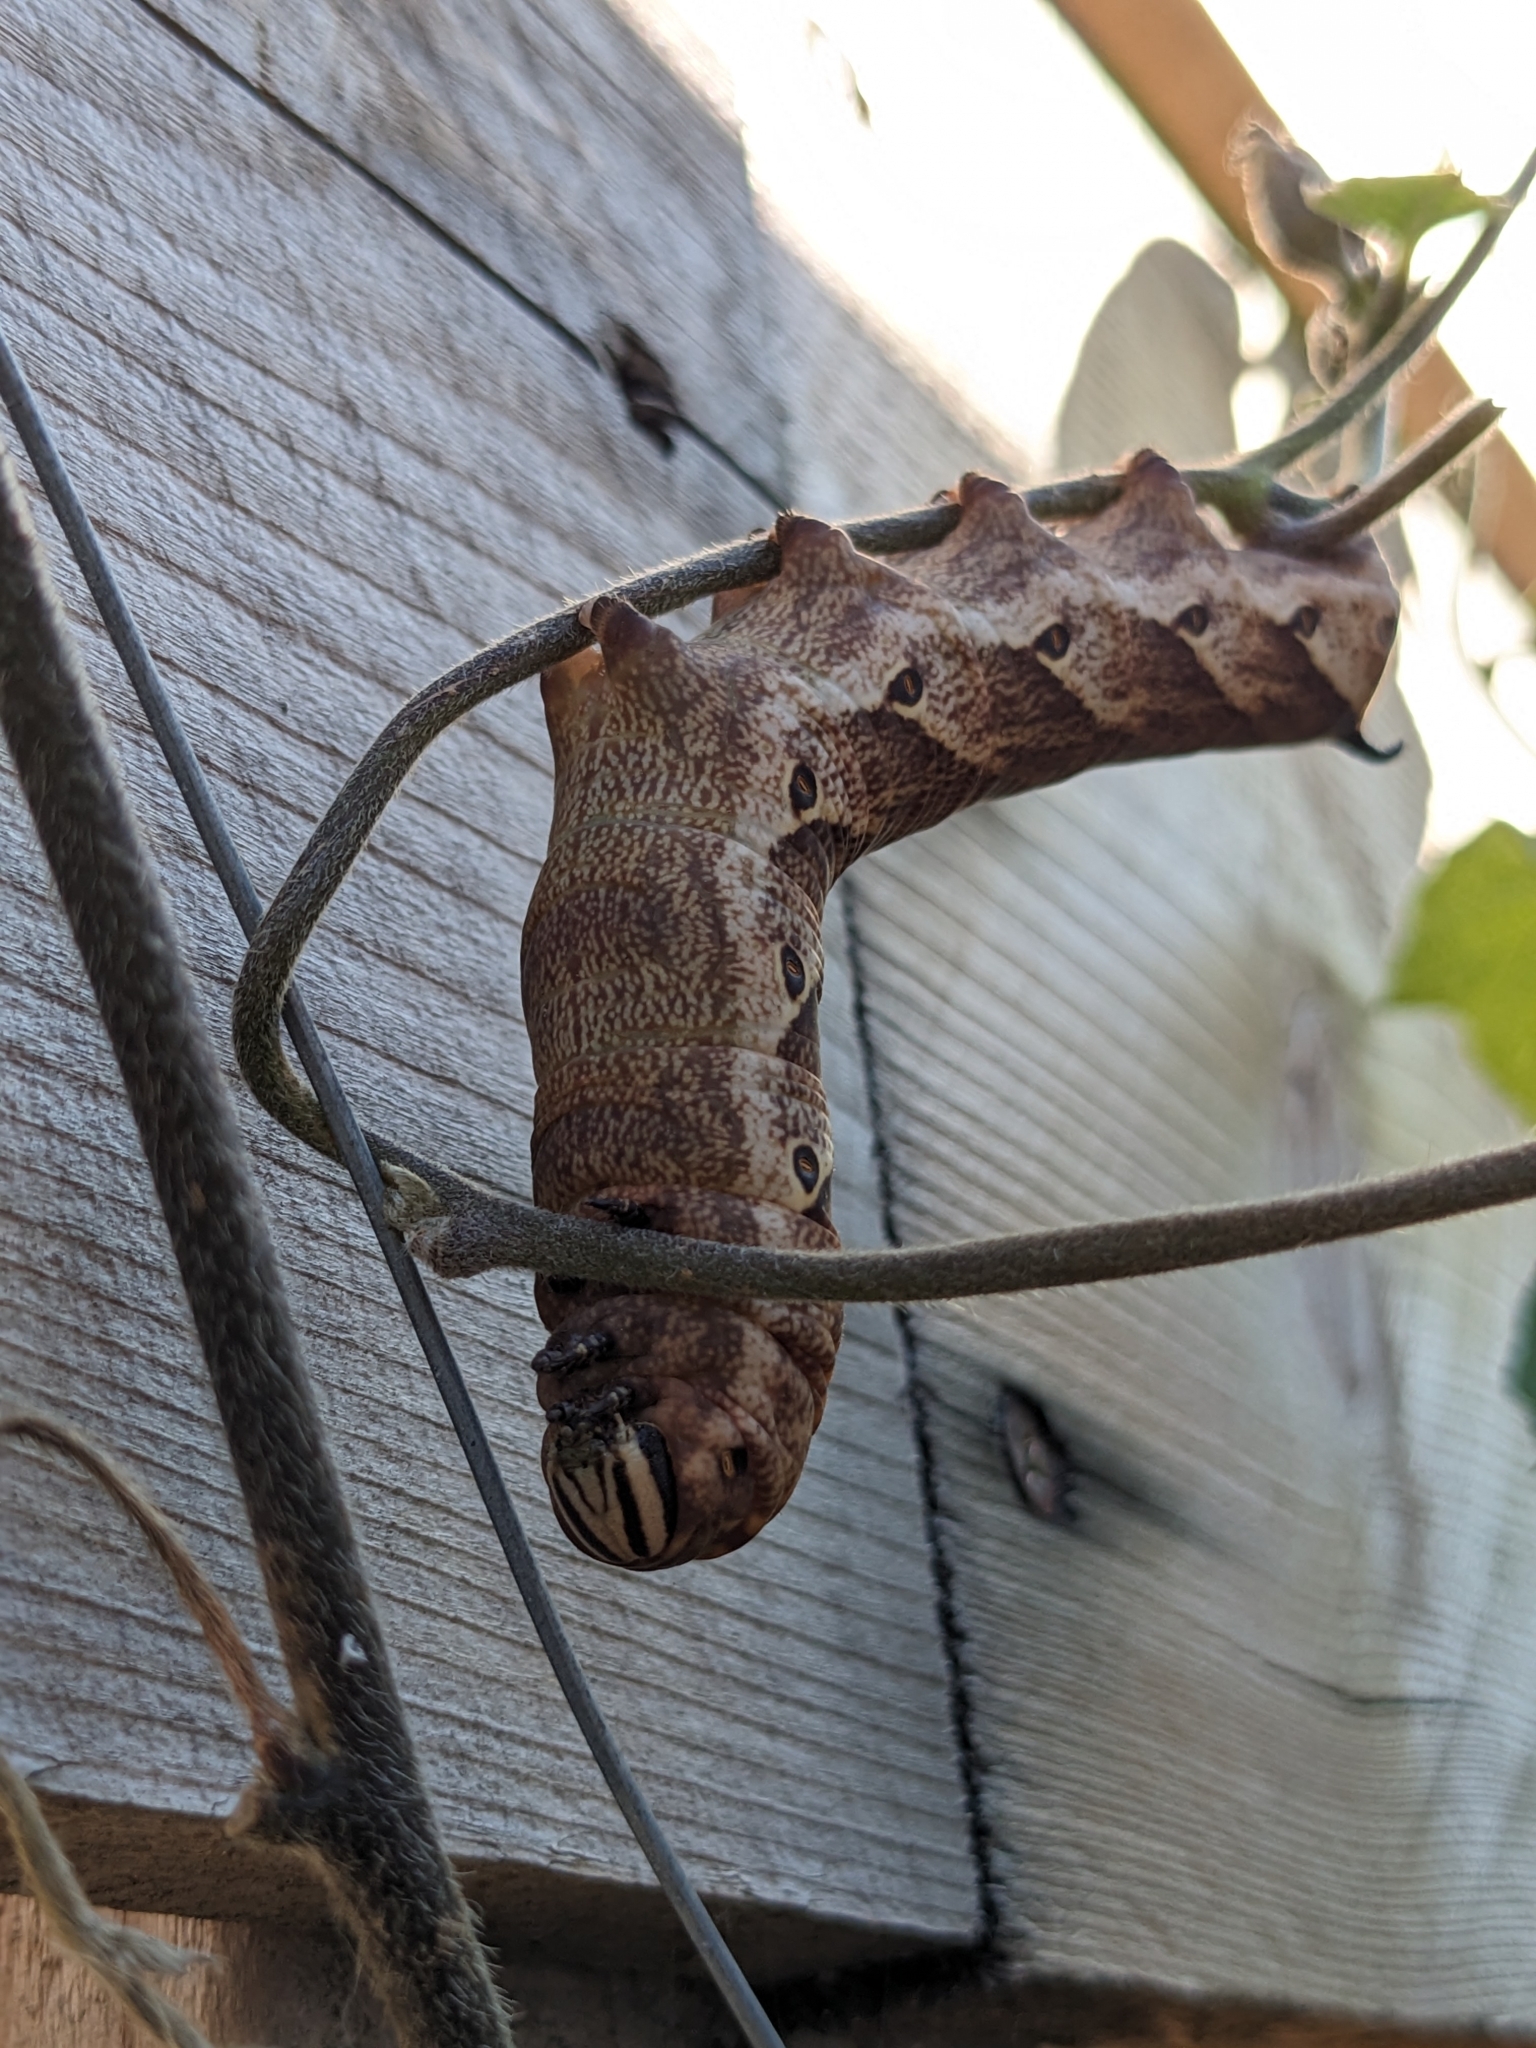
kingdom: Animalia
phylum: Arthropoda
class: Insecta
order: Lepidoptera
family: Sphingidae
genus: Agrius
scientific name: Agrius cingulata
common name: Pink-spotted hawkmoth
